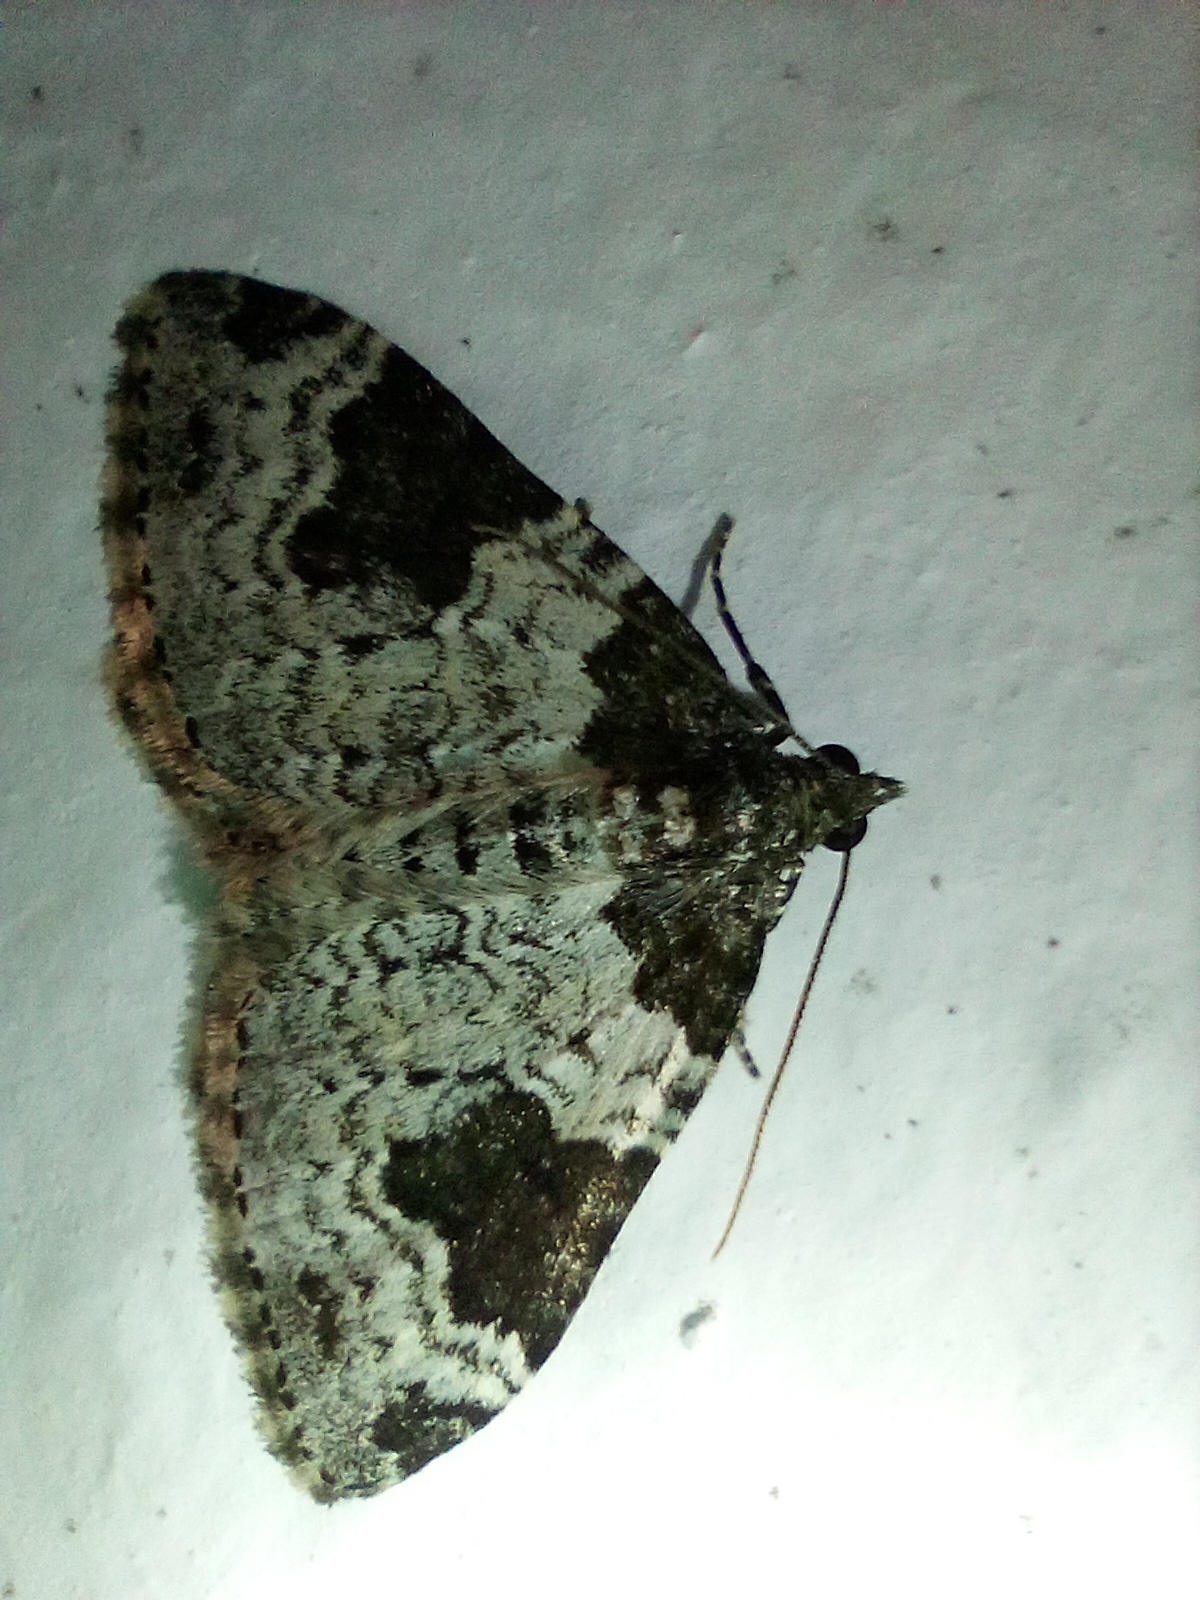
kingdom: Animalia
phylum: Arthropoda
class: Insecta
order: Lepidoptera
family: Geometridae
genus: Xanthorhoe
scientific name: Xanthorhoe fluctuata
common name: Garden carpet
